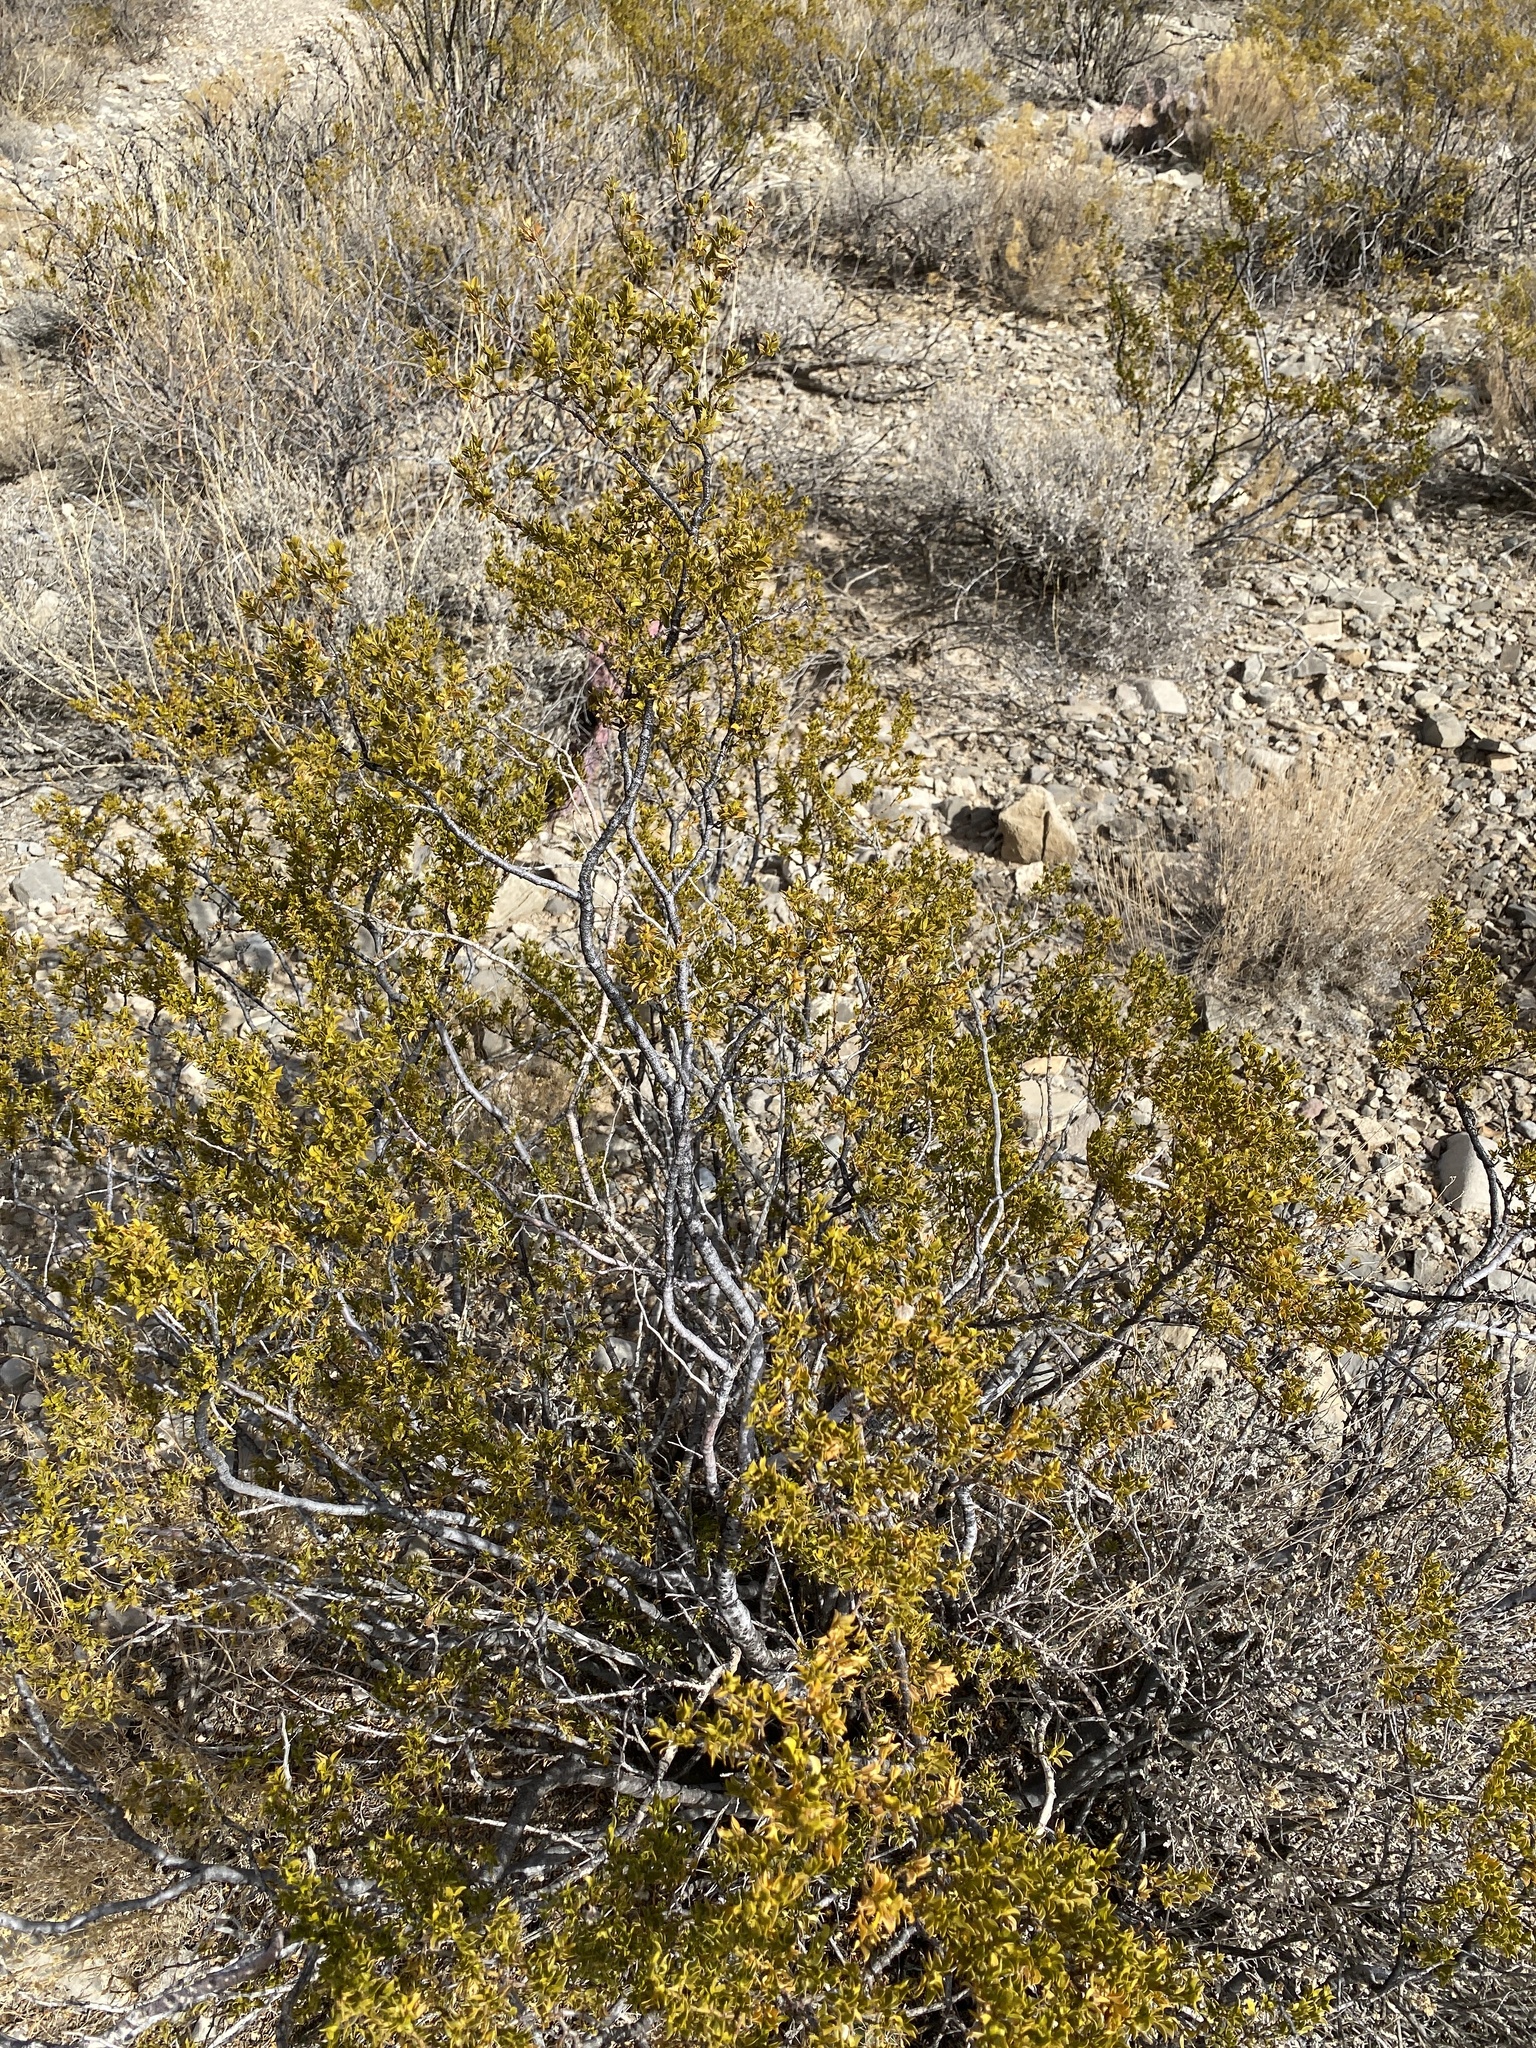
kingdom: Plantae
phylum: Tracheophyta
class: Magnoliopsida
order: Zygophyllales
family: Zygophyllaceae
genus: Larrea
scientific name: Larrea tridentata
